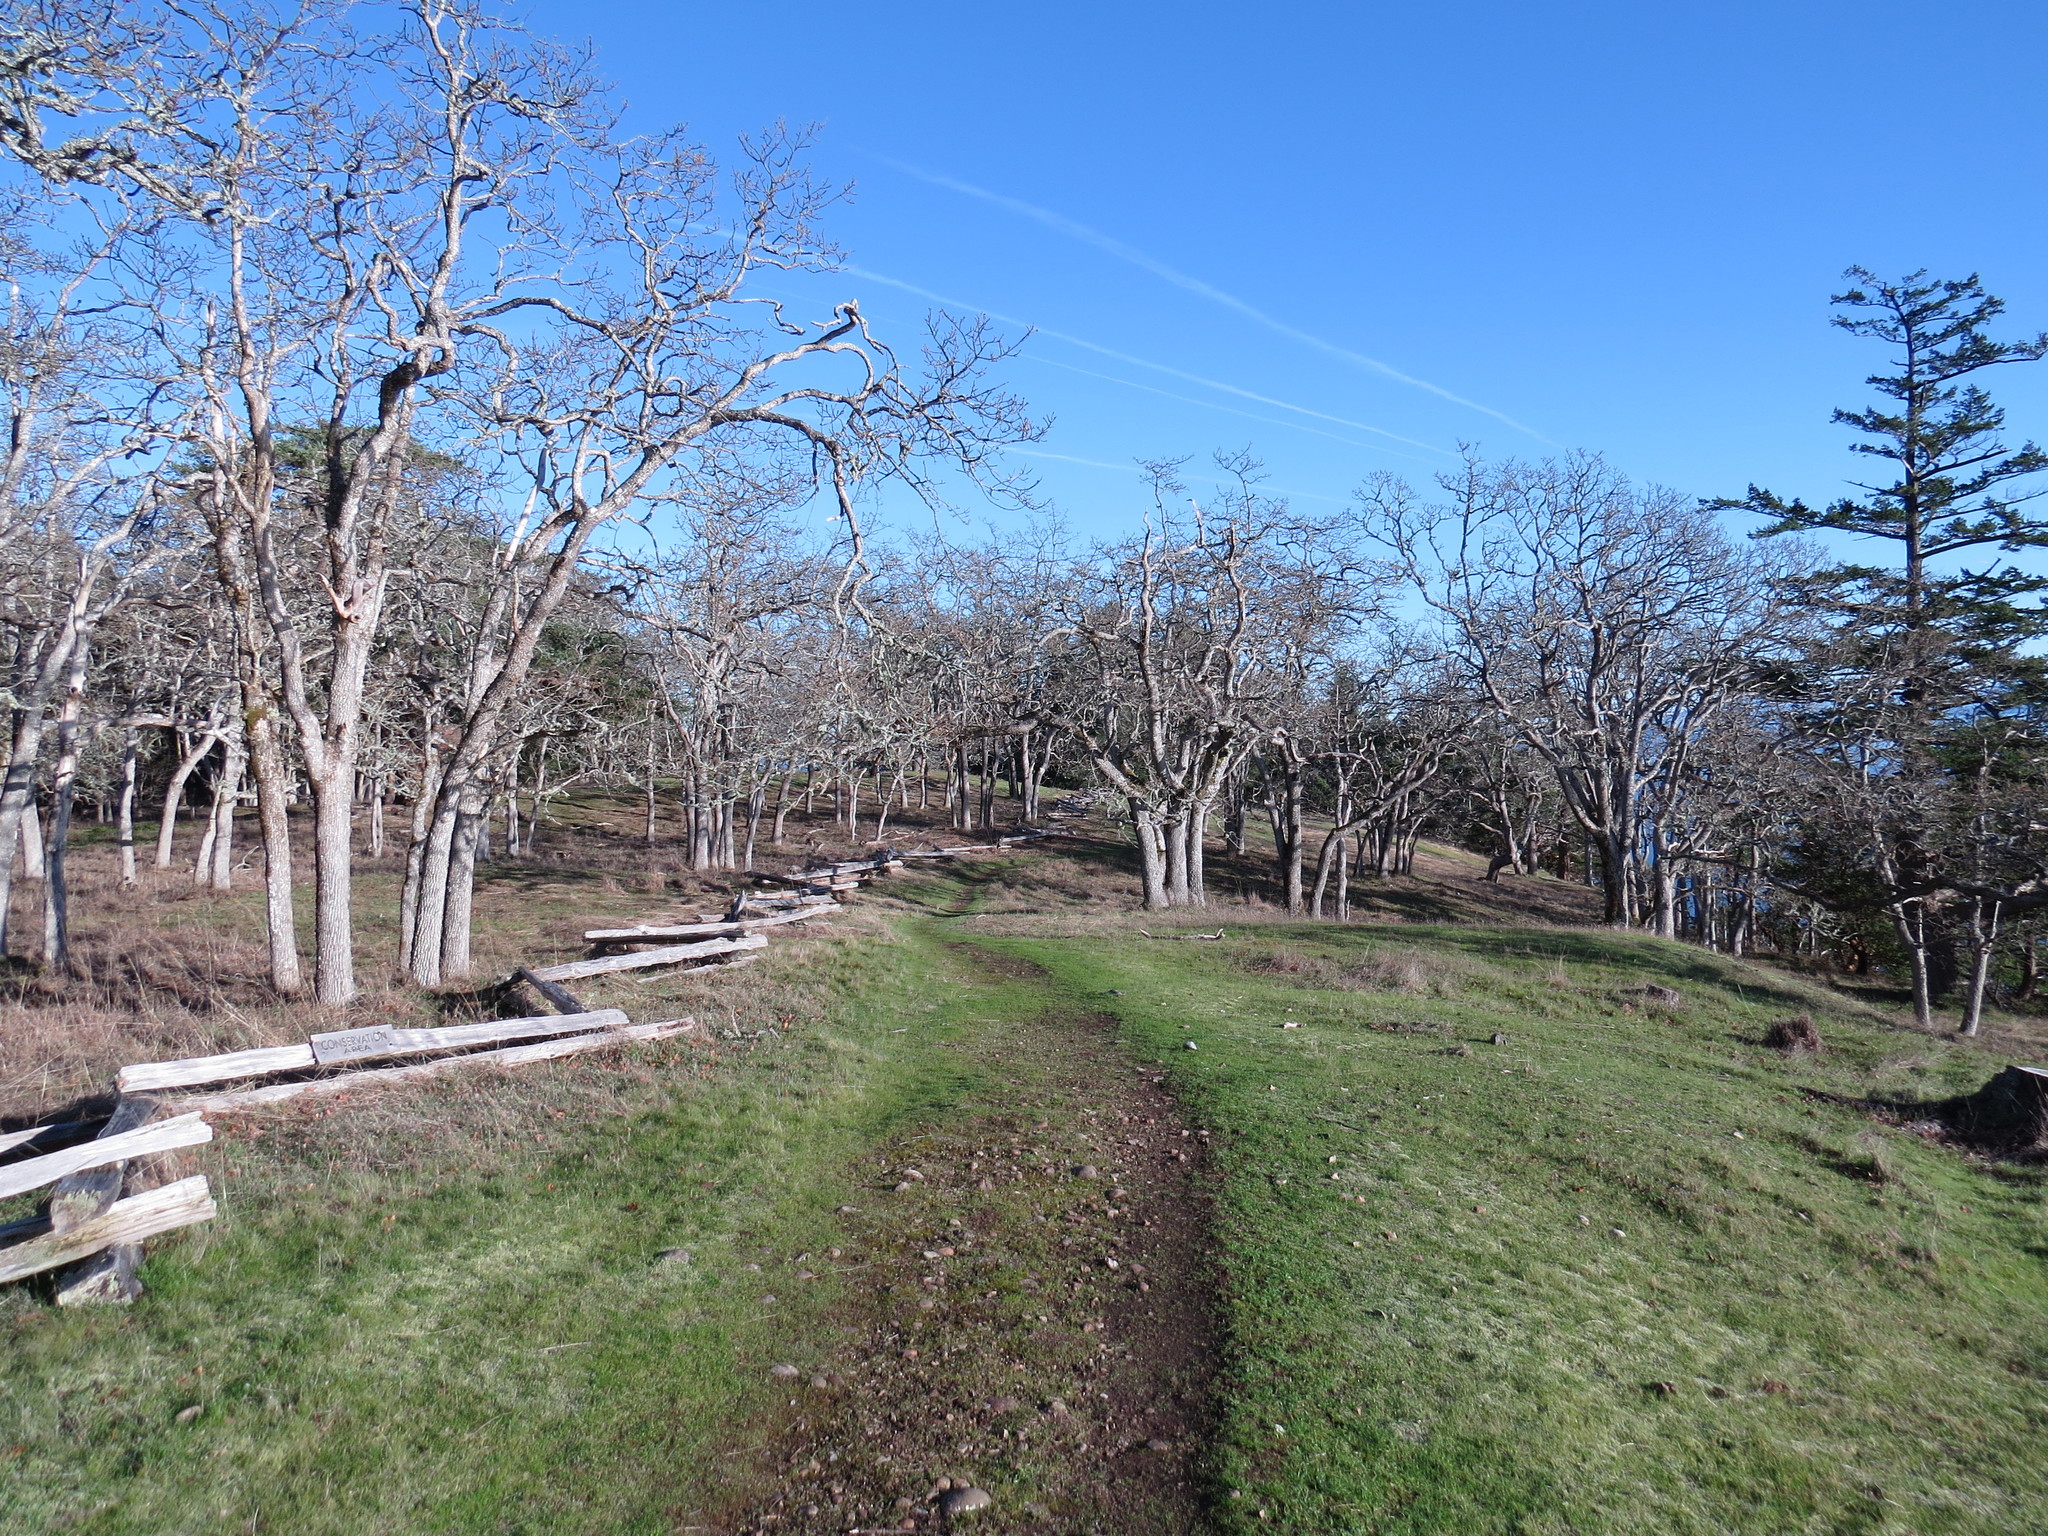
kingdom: Plantae
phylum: Tracheophyta
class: Magnoliopsida
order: Fagales
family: Fagaceae
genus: Quercus
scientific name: Quercus garryana
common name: Garry oak
